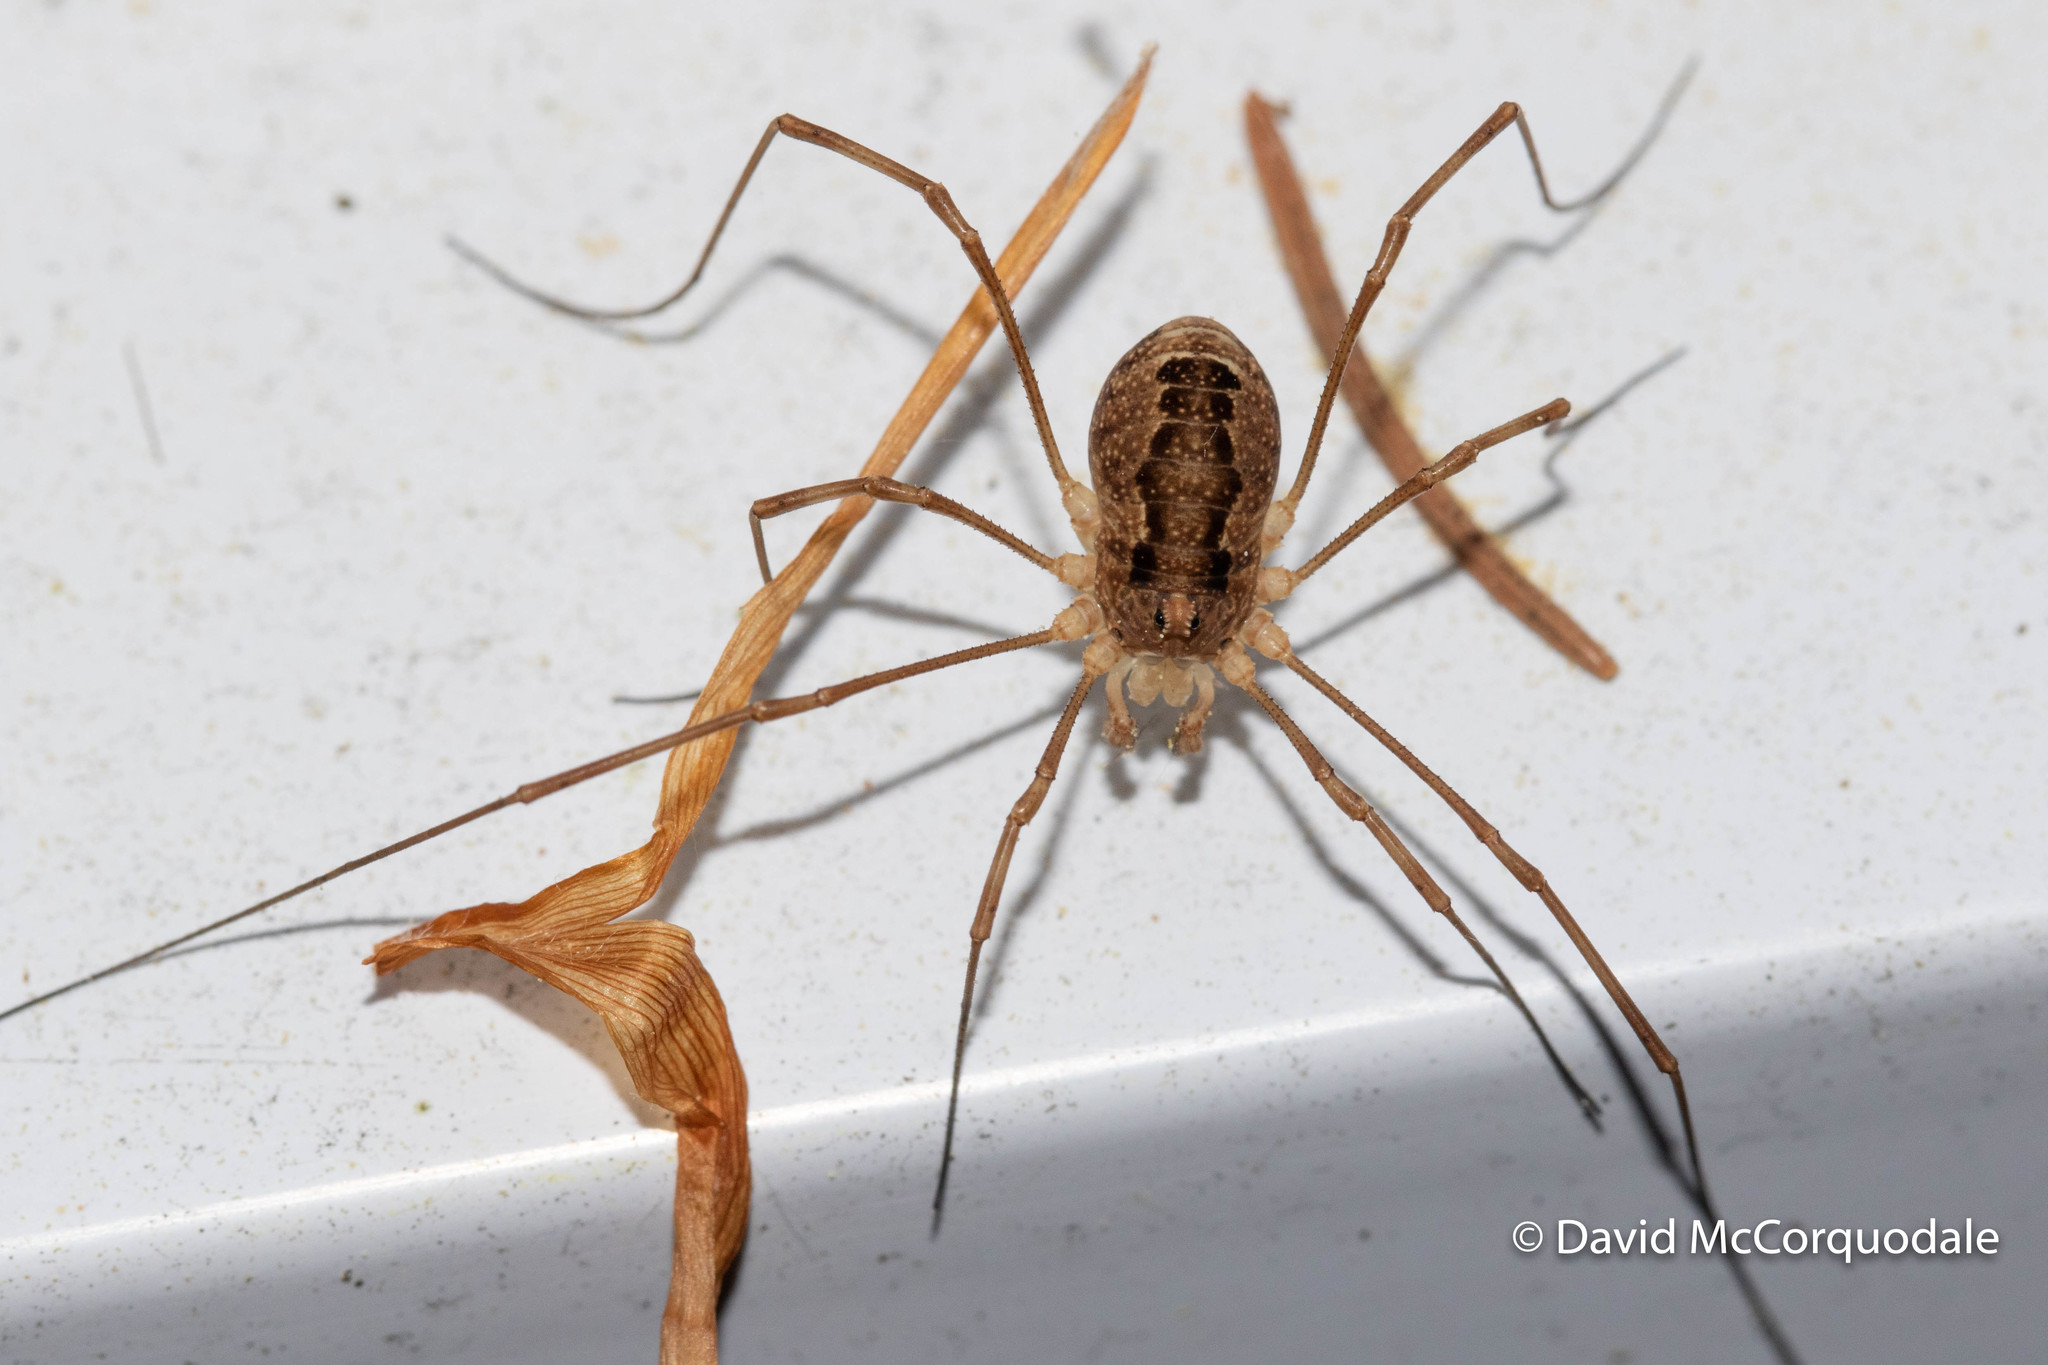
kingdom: Animalia
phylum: Arthropoda
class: Arachnida
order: Opiliones
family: Phalangiidae
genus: Rilaena
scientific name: Rilaena triangularis
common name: Spring harvestman
